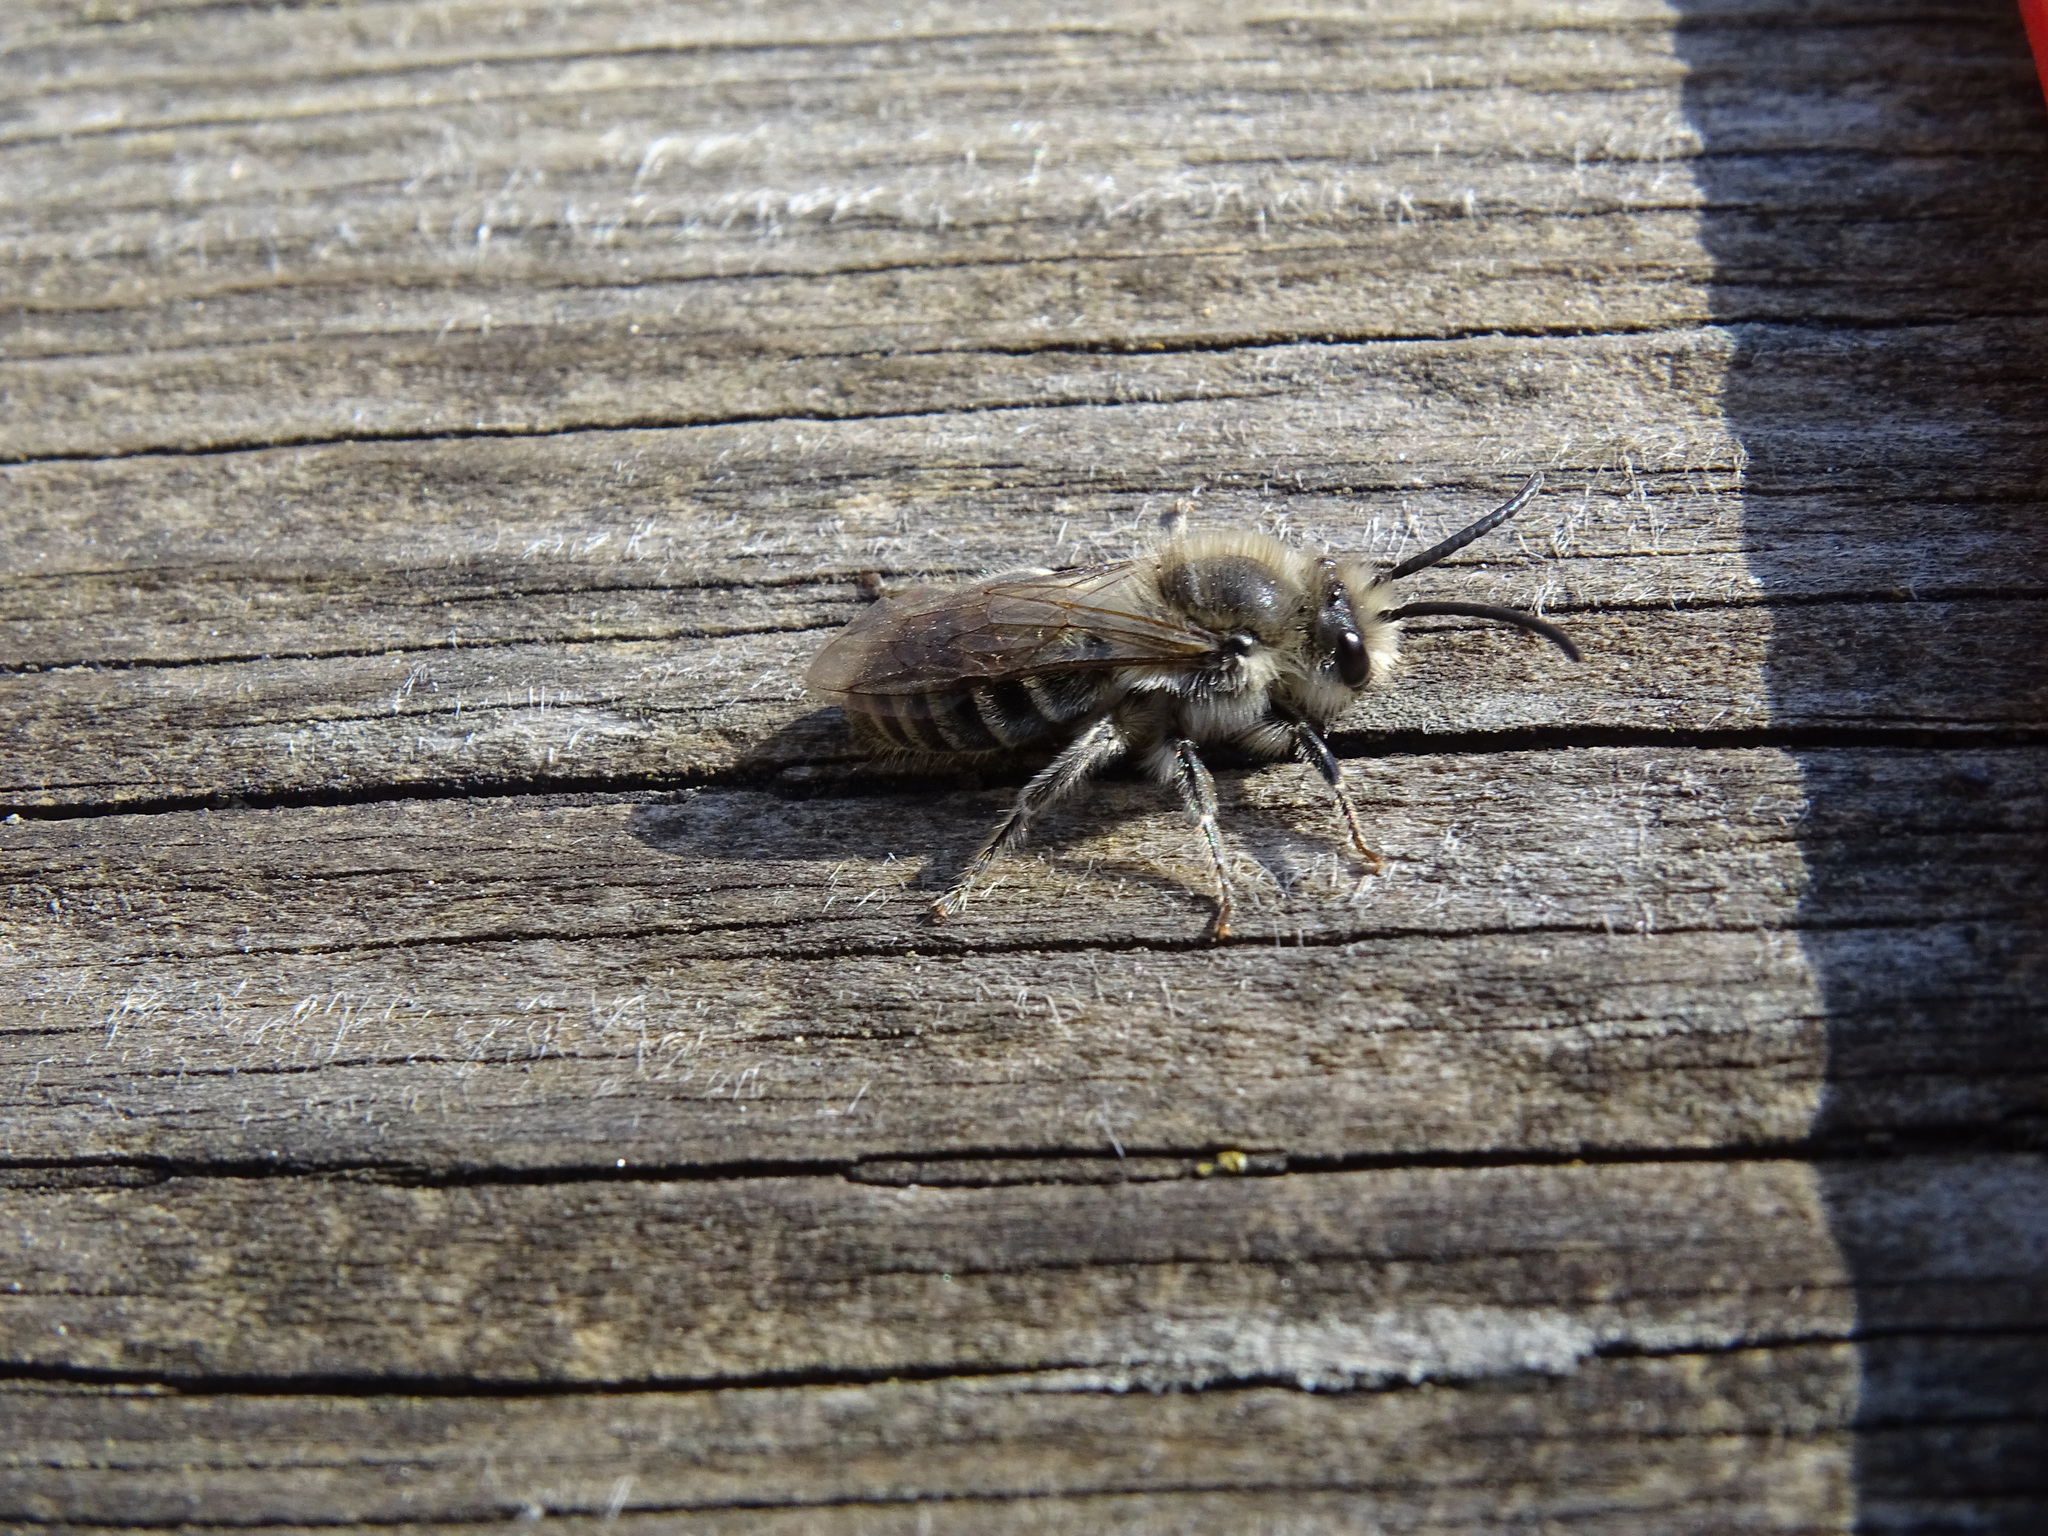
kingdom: Animalia
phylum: Arthropoda
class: Insecta
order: Hymenoptera
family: Colletidae
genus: Colletes
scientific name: Colletes inaequalis
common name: Unequal cellophane bee
